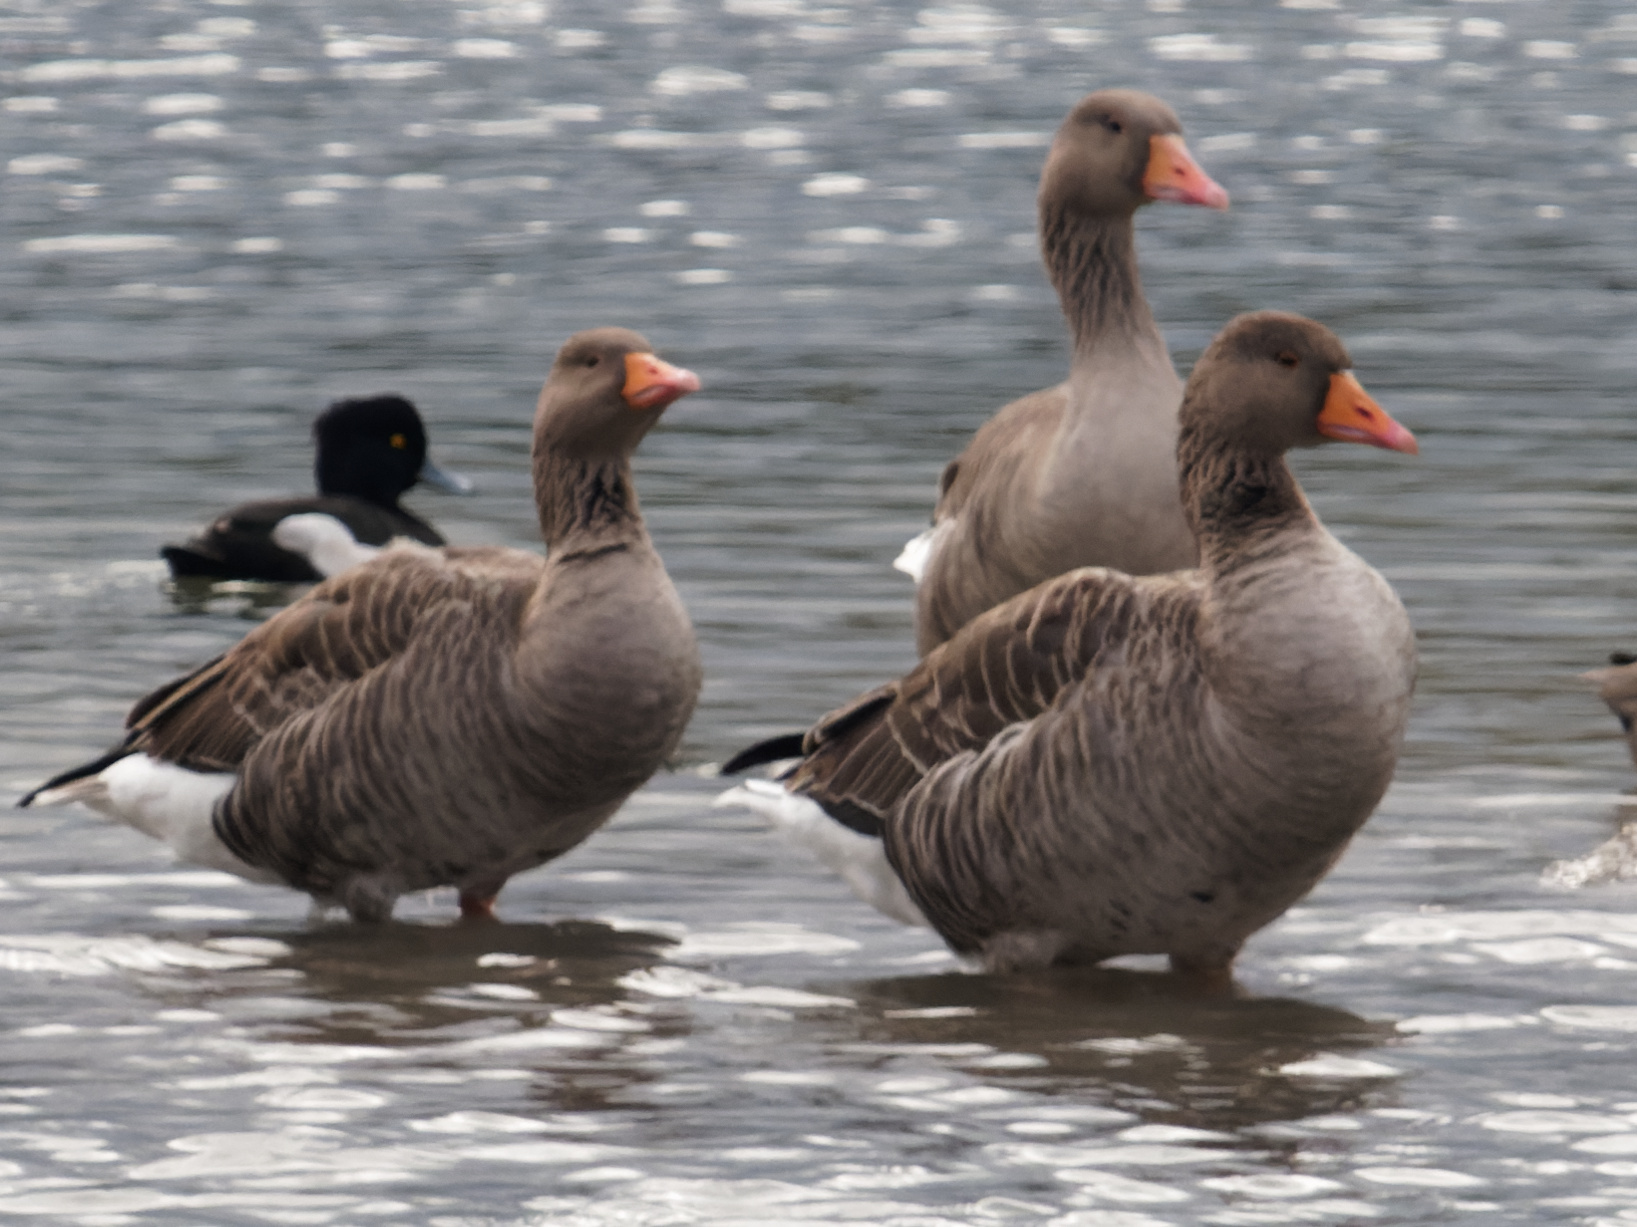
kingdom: Animalia
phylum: Chordata
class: Aves
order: Anseriformes
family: Anatidae
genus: Anser
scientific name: Anser anser
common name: Greylag goose
